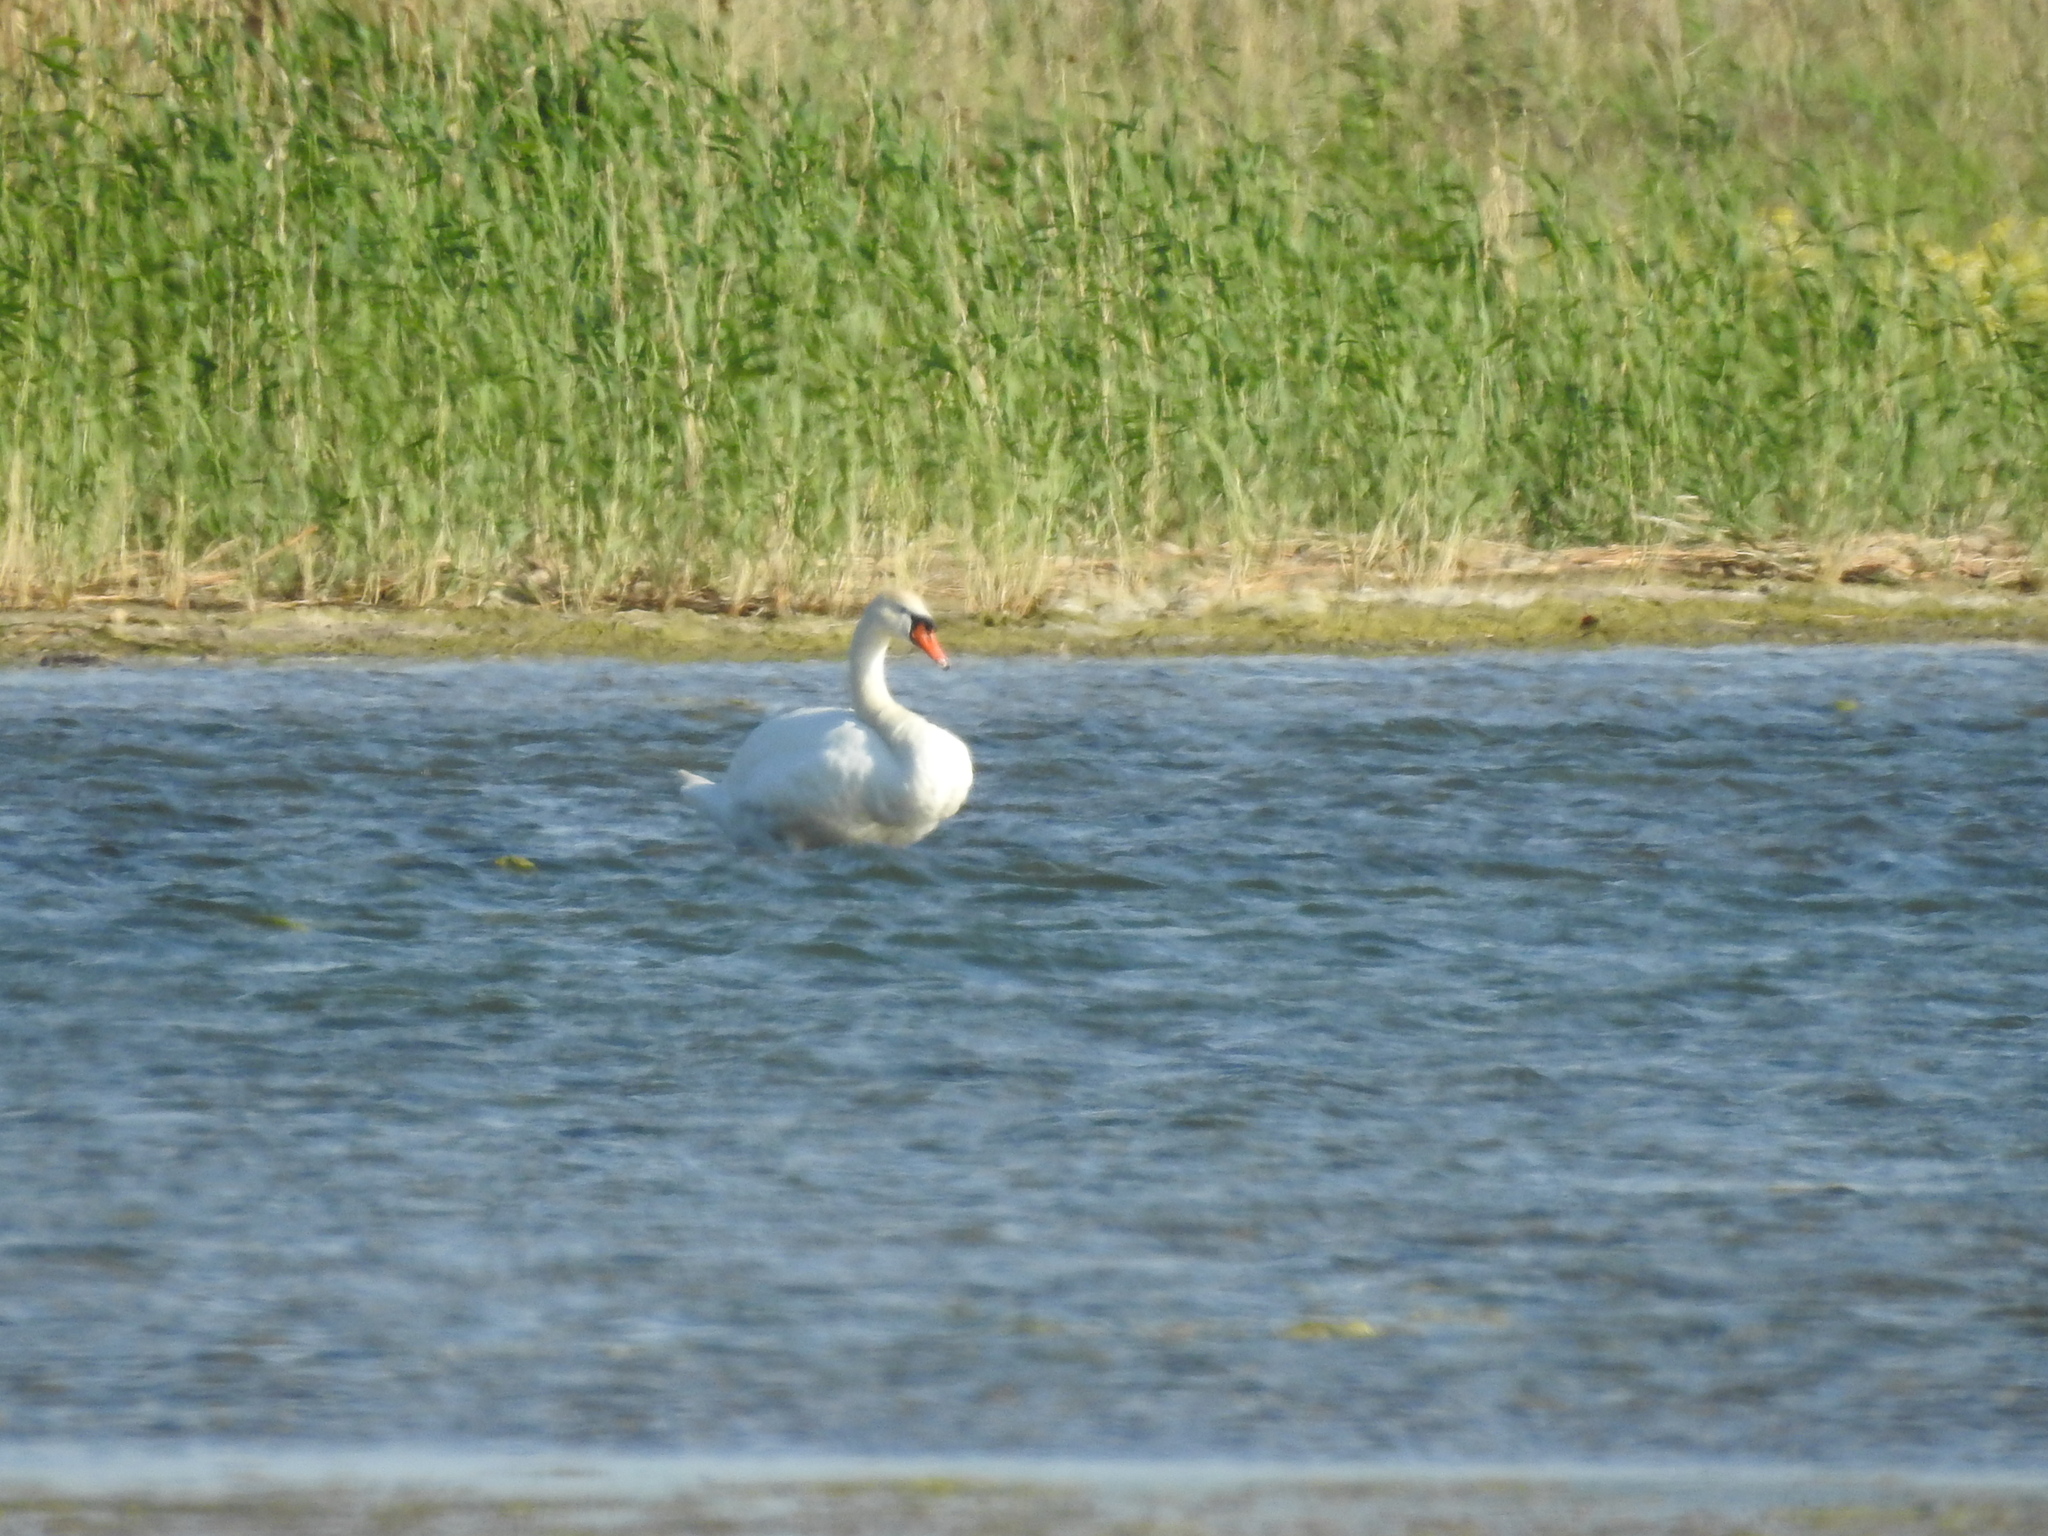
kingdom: Animalia
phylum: Chordata
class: Aves
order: Anseriformes
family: Anatidae
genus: Cygnus
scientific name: Cygnus olor
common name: Mute swan
